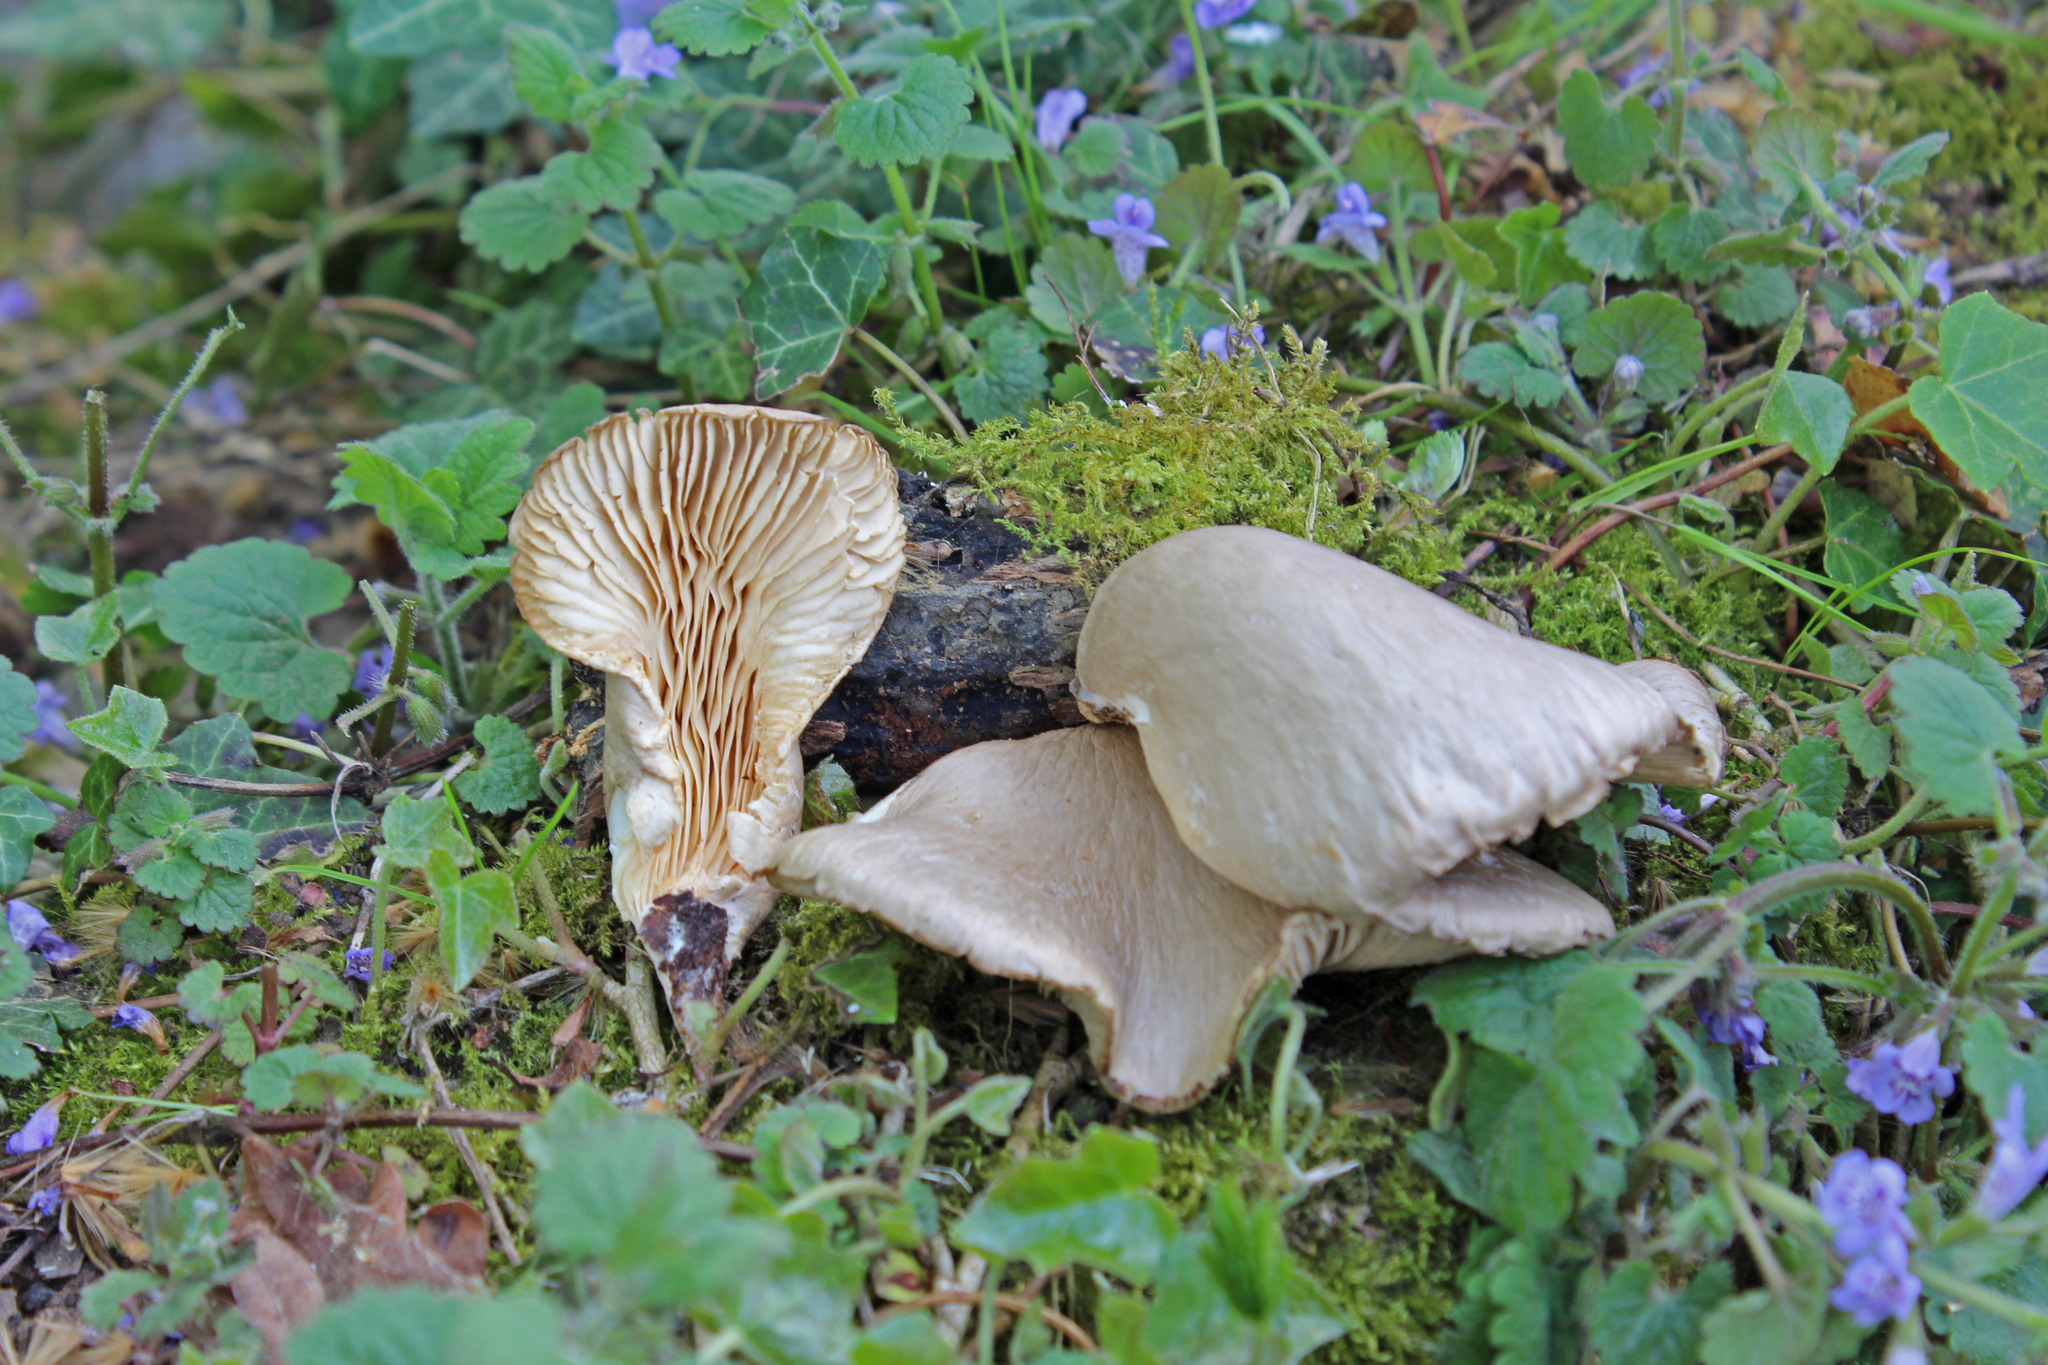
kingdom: Fungi
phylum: Basidiomycota
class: Agaricomycetes
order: Agaricales
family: Pleurotaceae
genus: Pleurotus
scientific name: Pleurotus calyptratus
